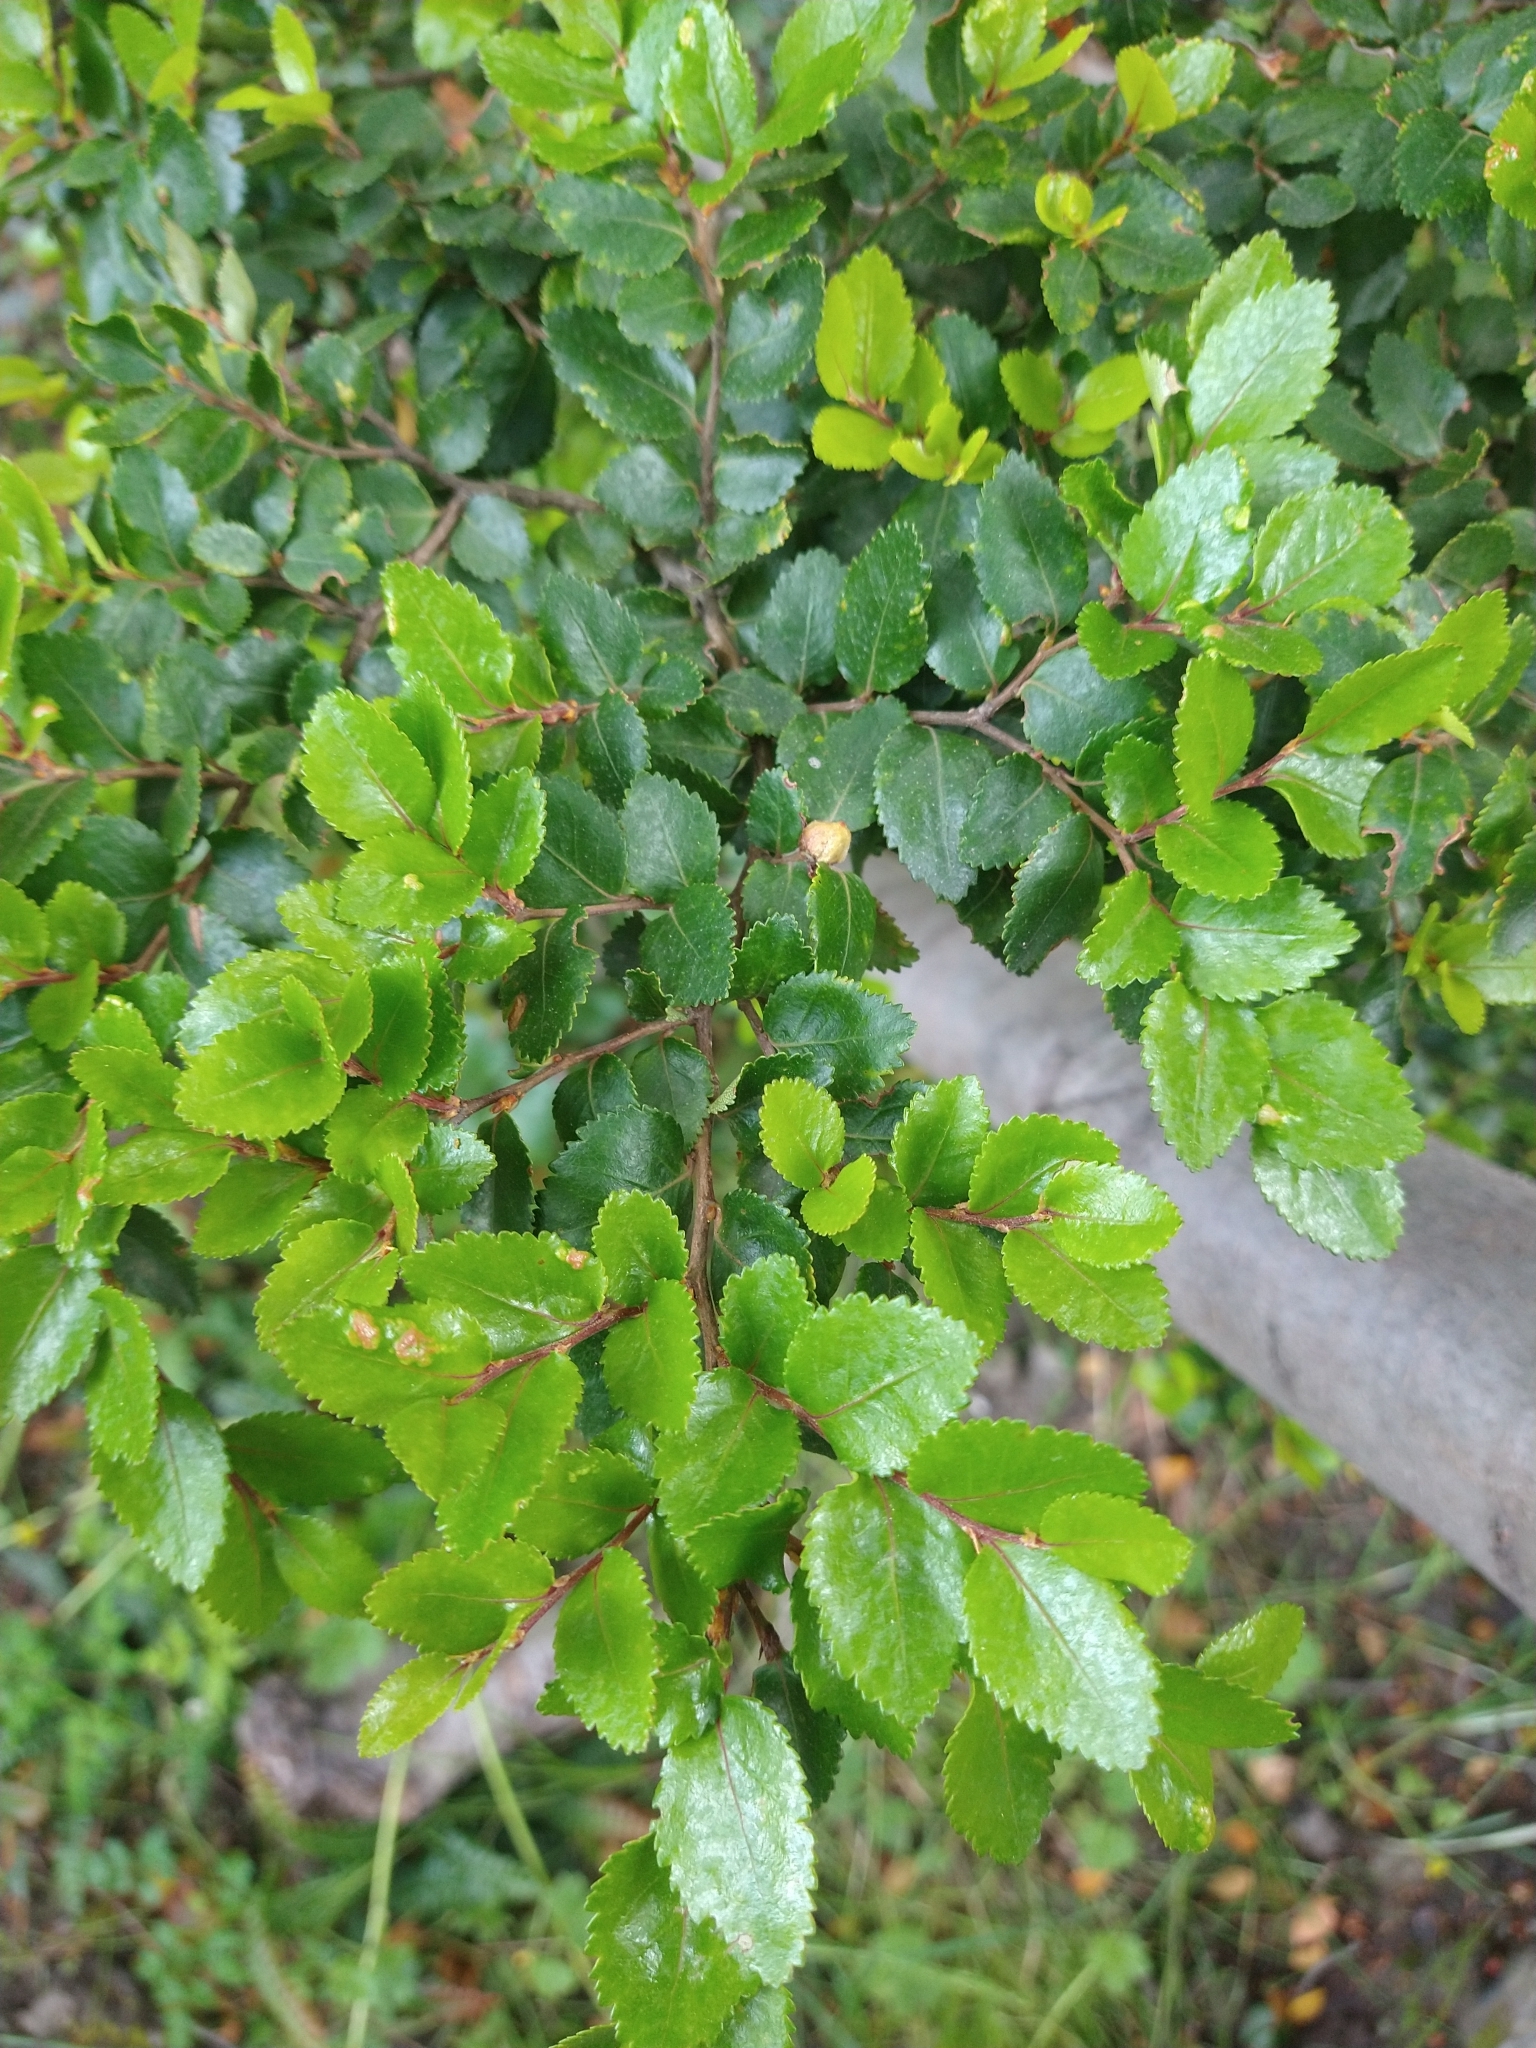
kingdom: Plantae
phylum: Tracheophyta
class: Magnoliopsida
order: Fagales
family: Nothofagaceae
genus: Nothofagus
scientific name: Nothofagus betuloides
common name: Magellan's beech
